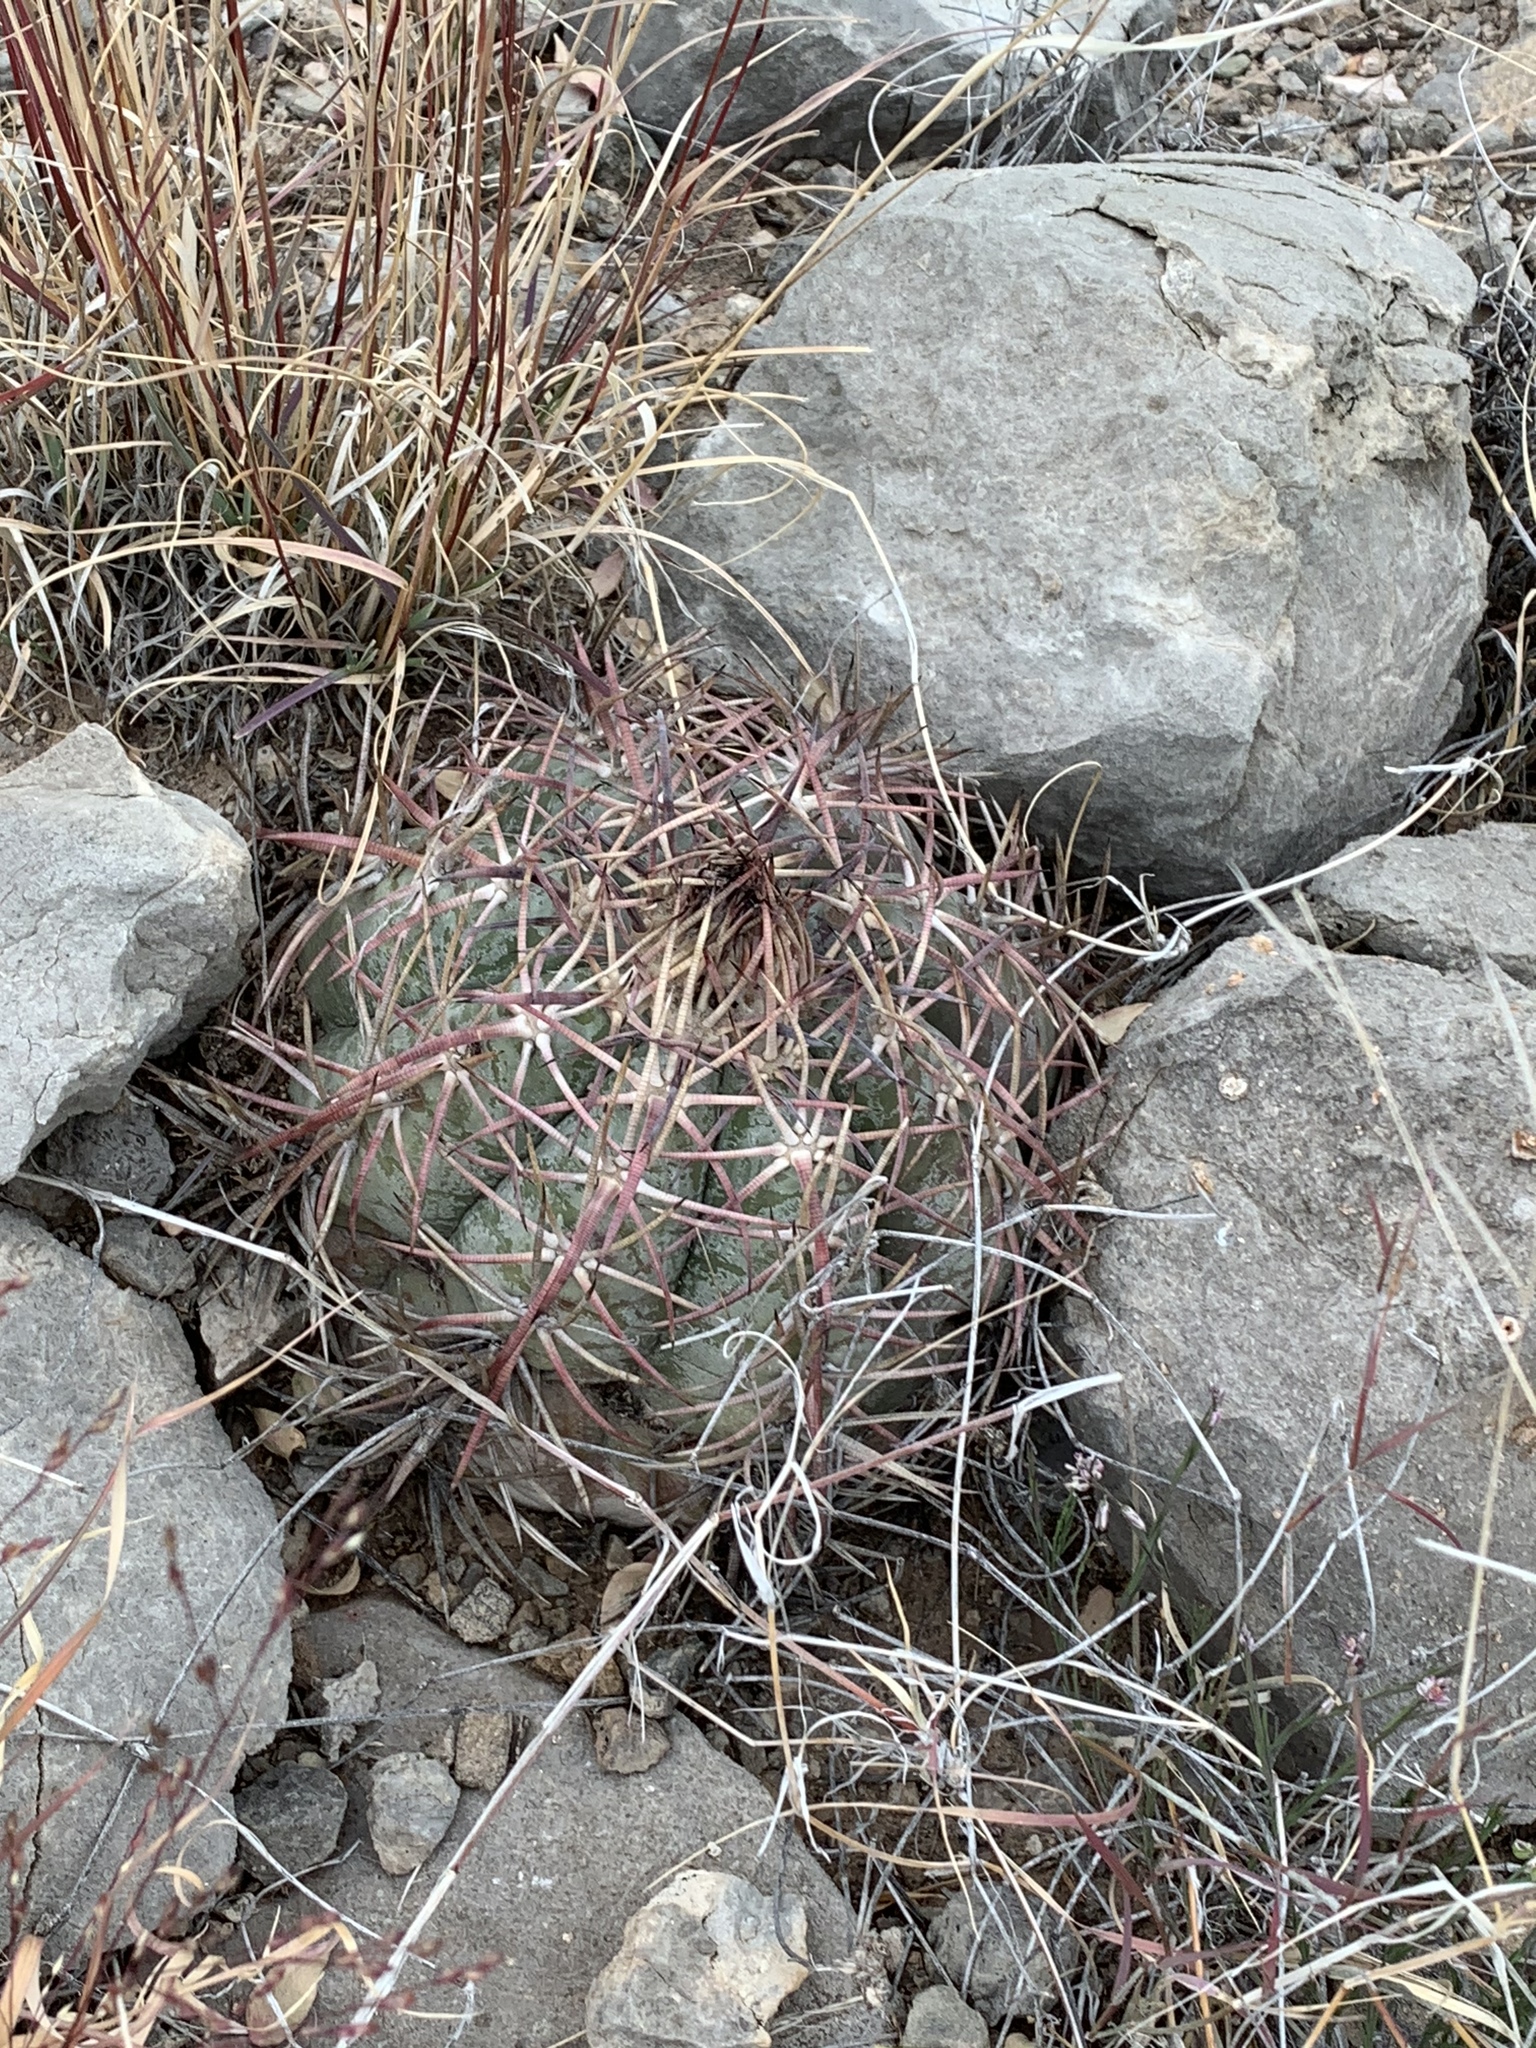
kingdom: Plantae
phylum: Tracheophyta
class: Magnoliopsida
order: Caryophyllales
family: Cactaceae
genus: Echinocactus
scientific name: Echinocactus horizonthalonius
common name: Devilshead
